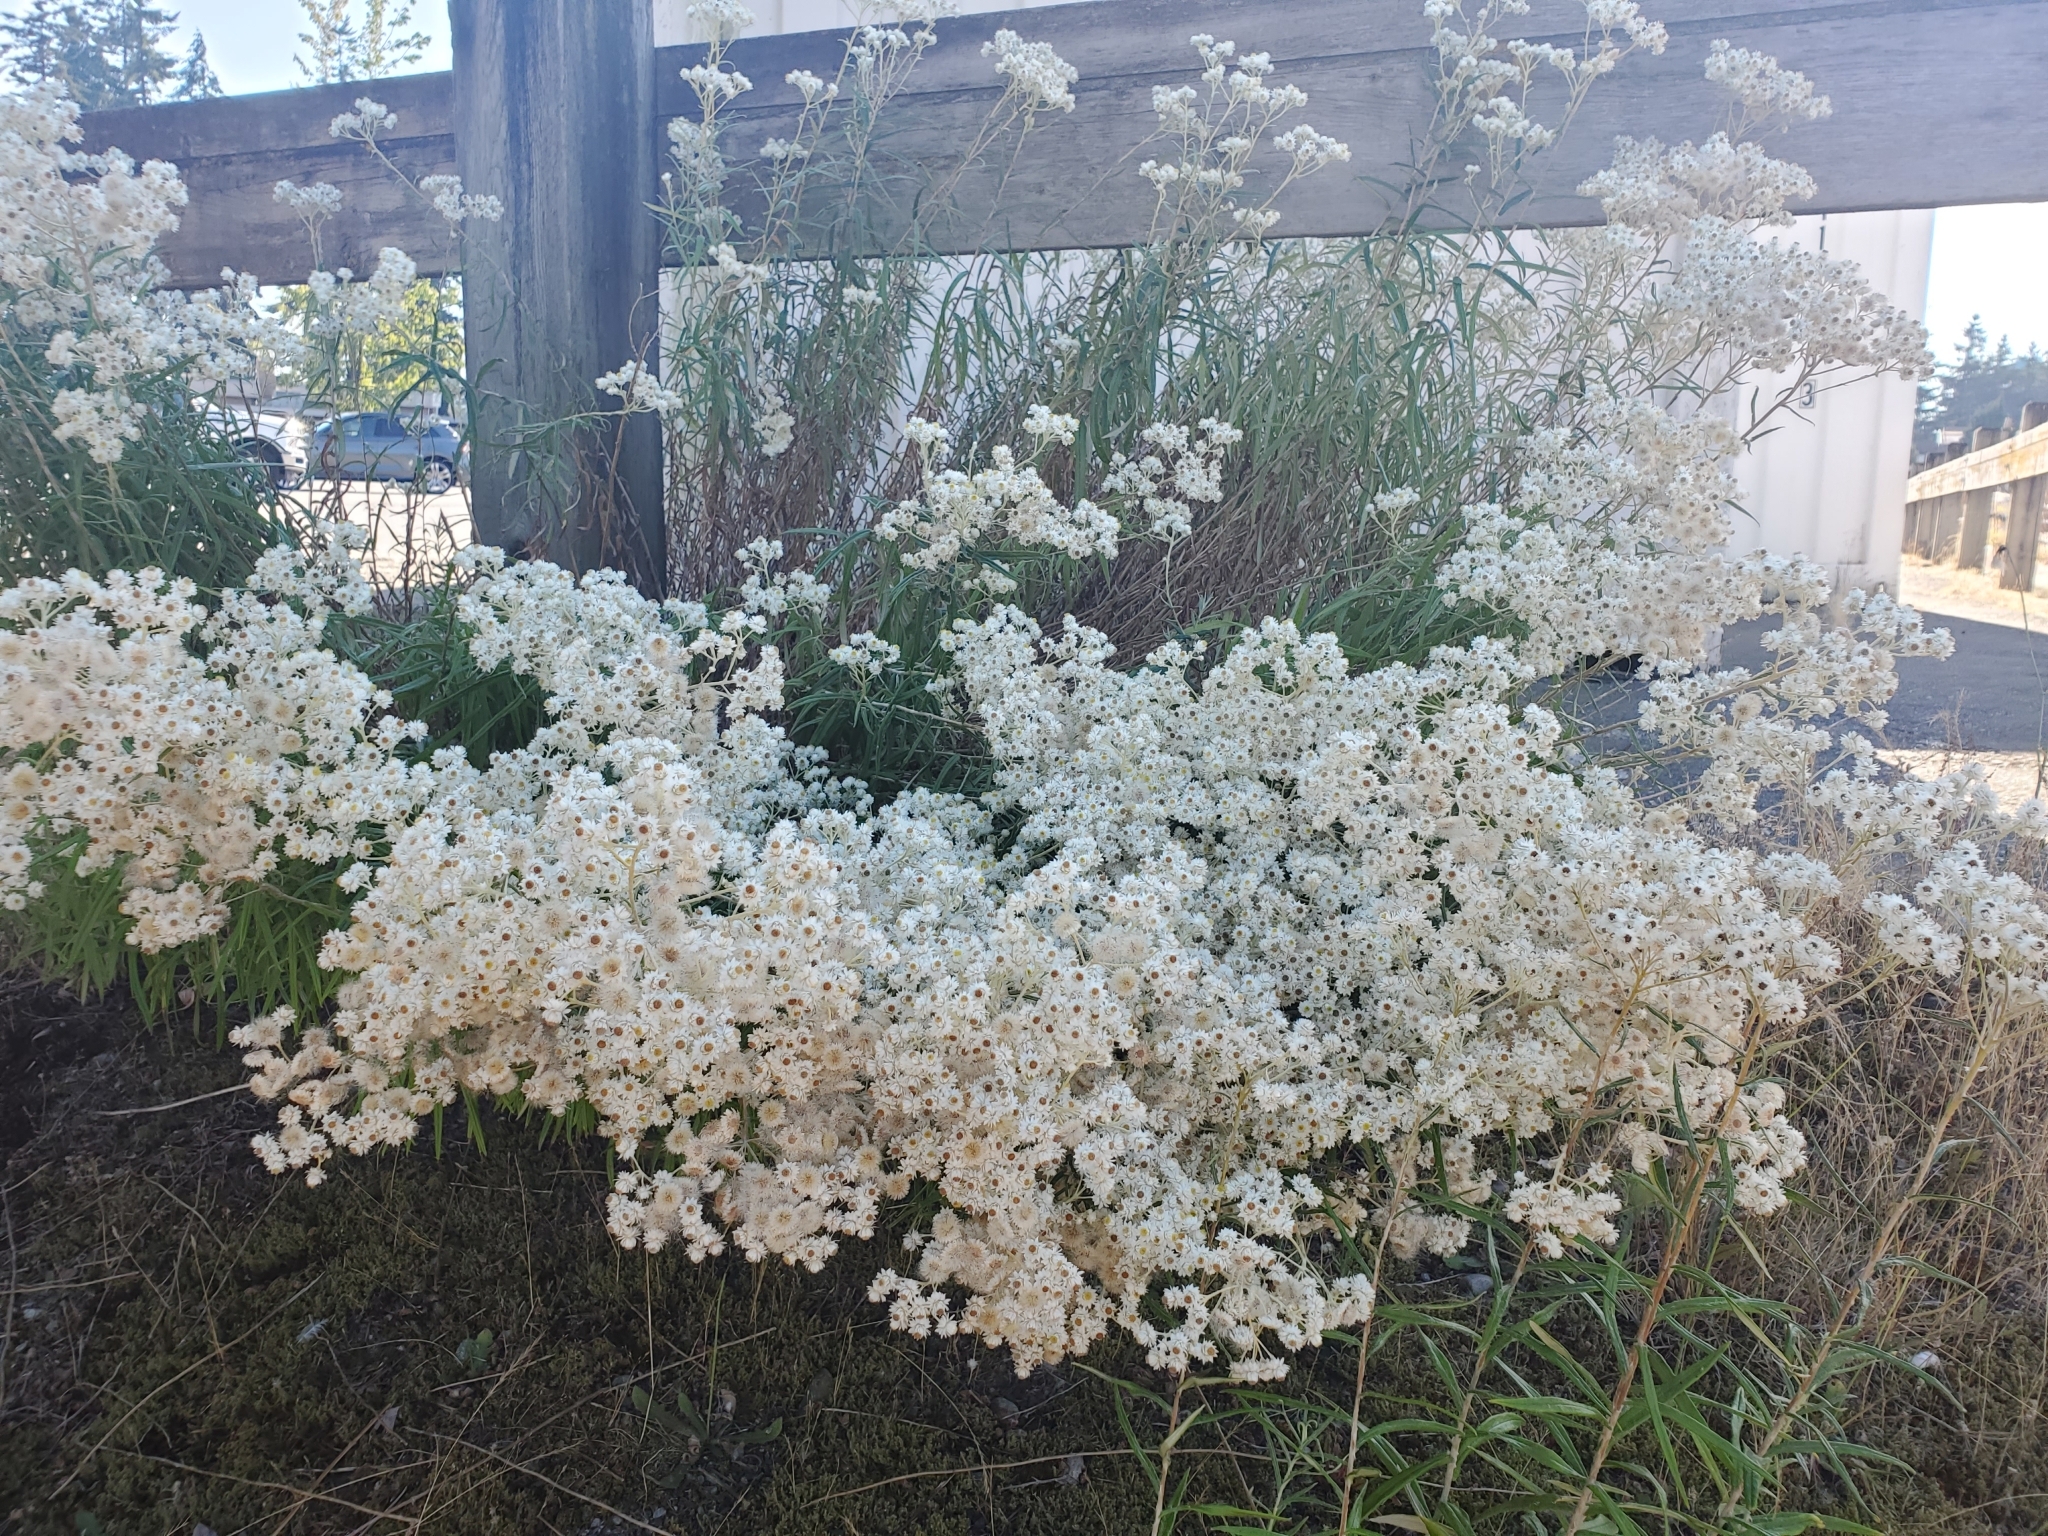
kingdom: Plantae
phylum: Tracheophyta
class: Magnoliopsida
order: Asterales
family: Asteraceae
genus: Anaphalis
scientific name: Anaphalis margaritacea
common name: Pearly everlasting
